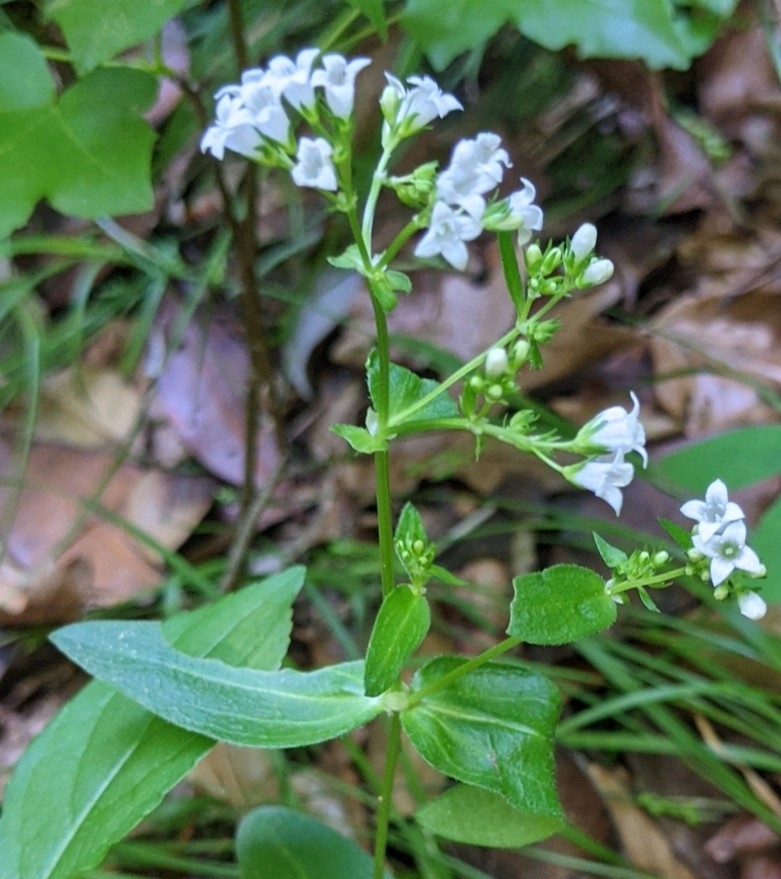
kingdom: Plantae
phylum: Tracheophyta
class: Magnoliopsida
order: Gentianales
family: Rubiaceae
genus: Houstonia
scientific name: Houstonia purpurea
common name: Summer bluet
